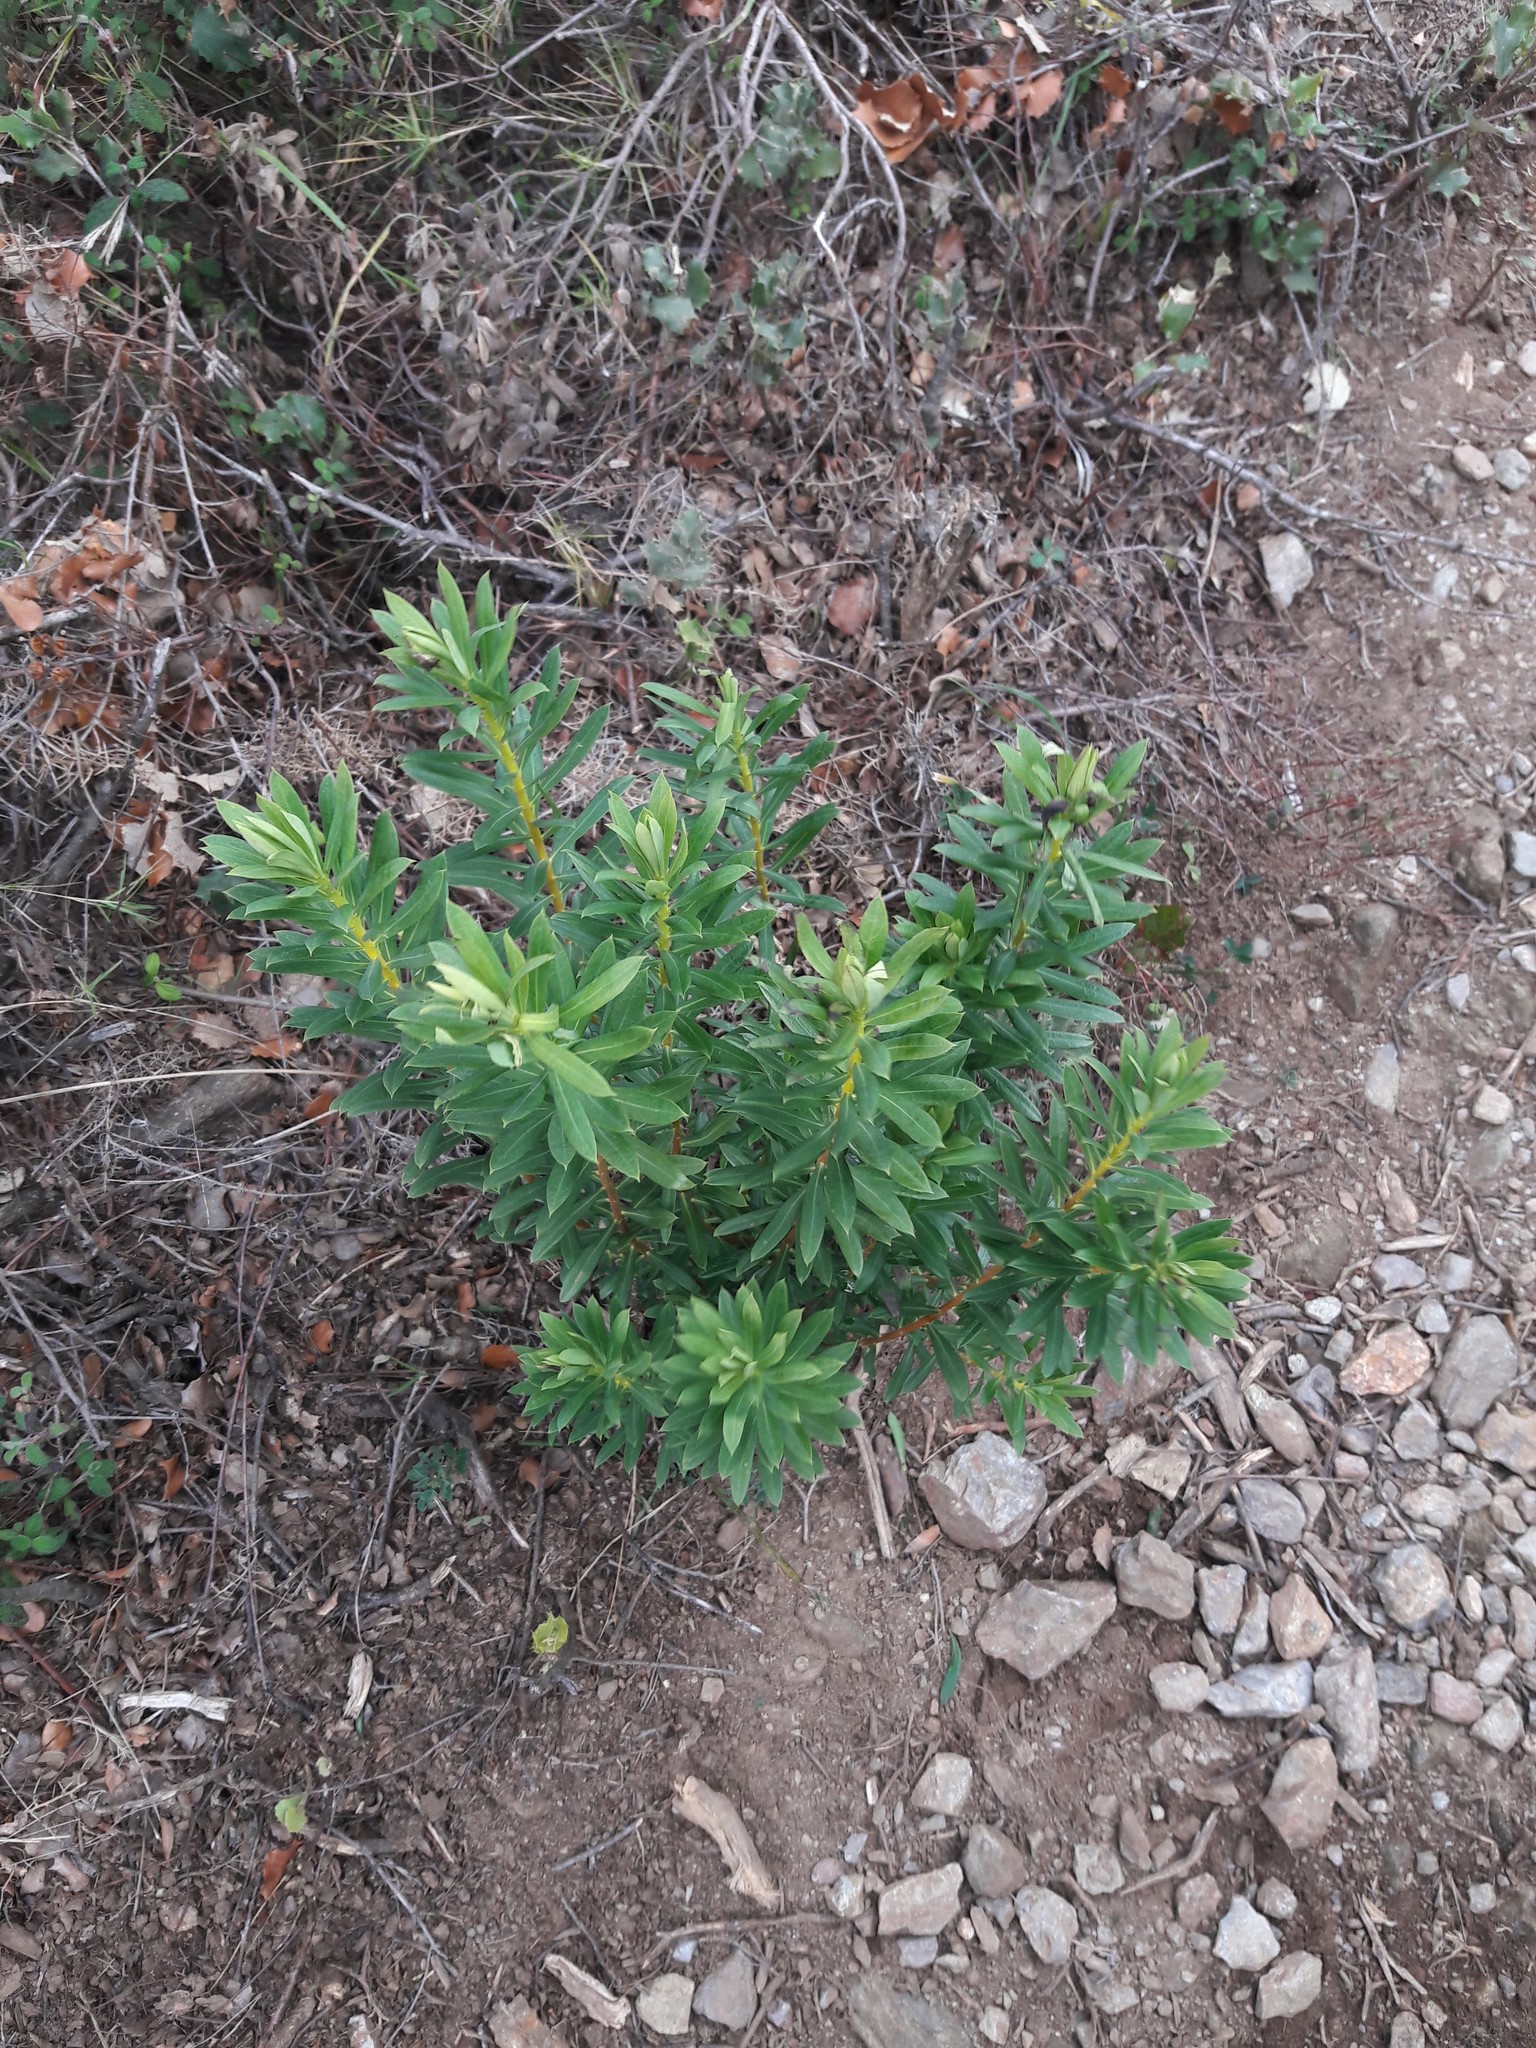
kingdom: Plantae
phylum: Tracheophyta
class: Magnoliopsida
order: Malvales
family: Thymelaeaceae
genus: Daphne
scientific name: Daphne gnidium
